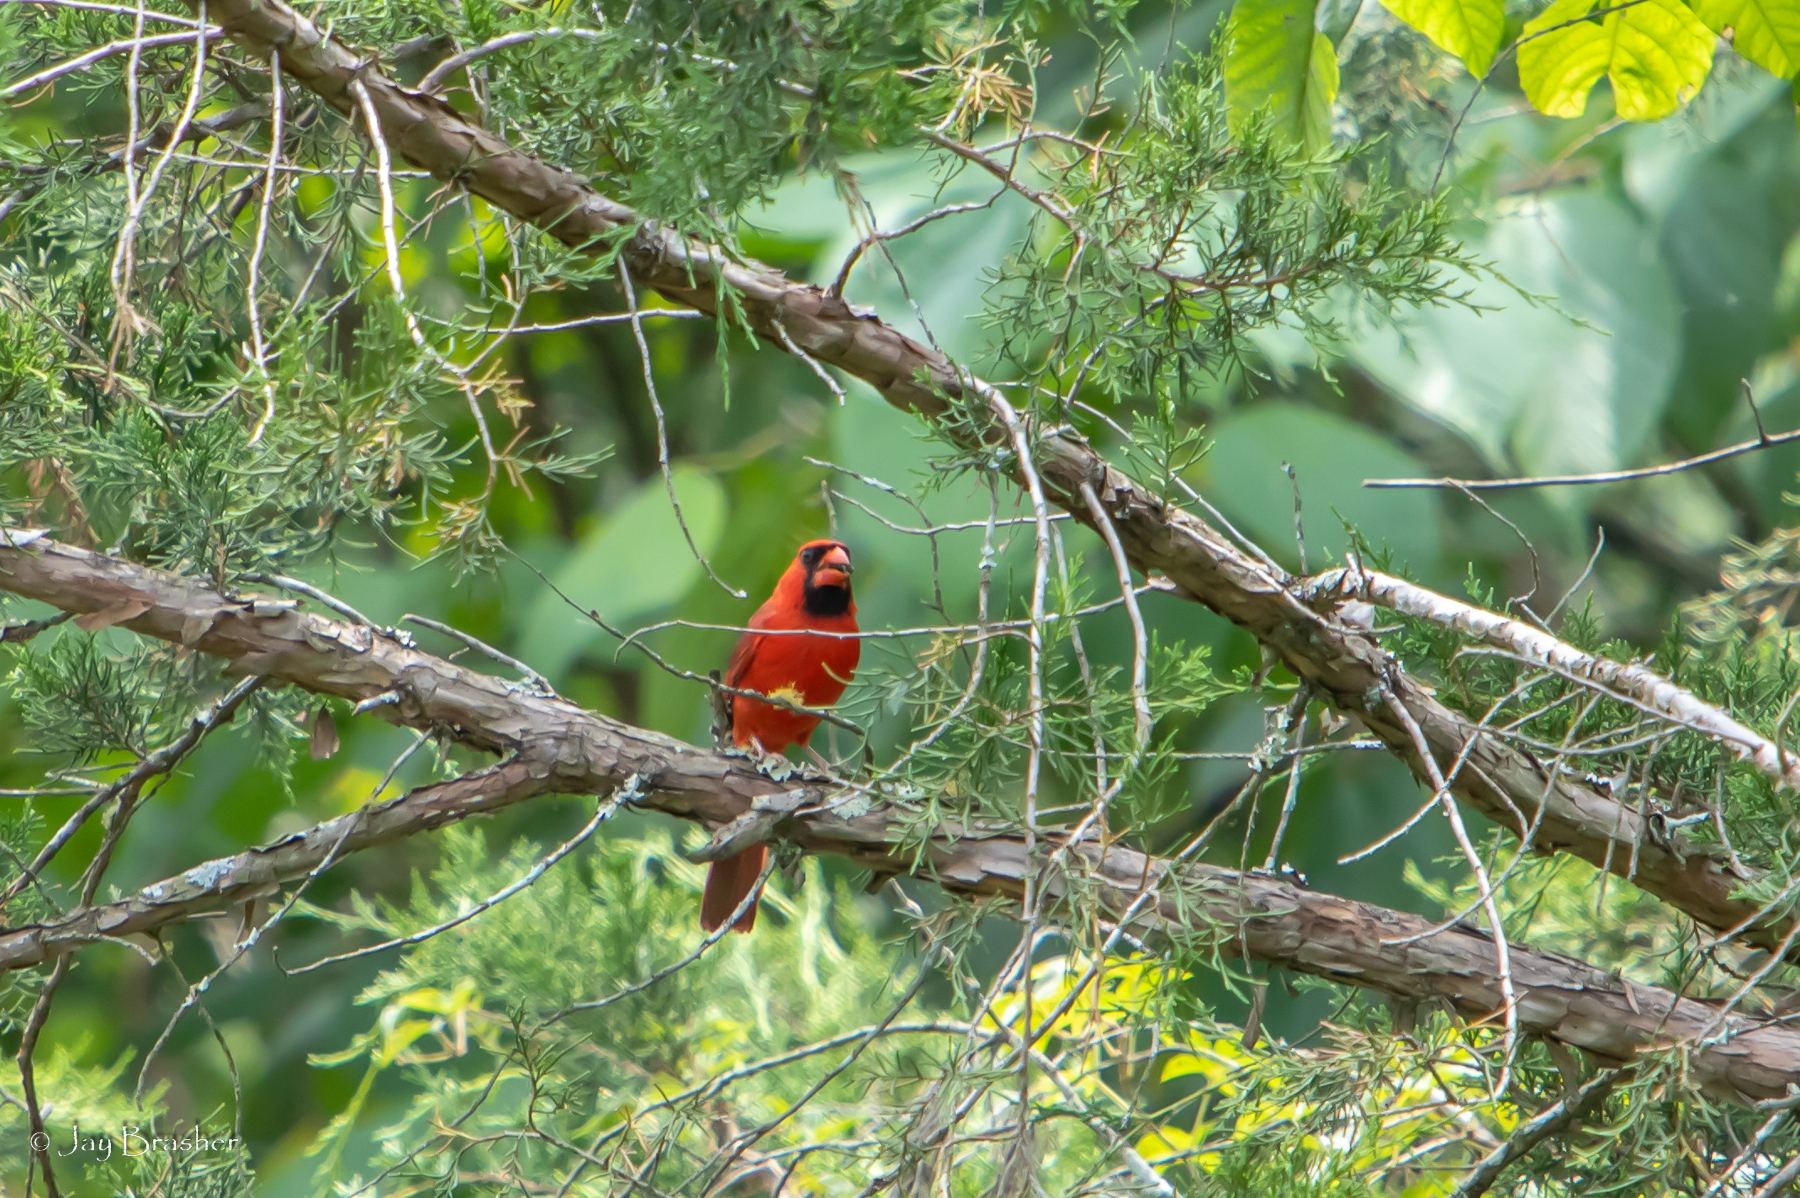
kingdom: Animalia
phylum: Chordata
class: Aves
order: Passeriformes
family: Cardinalidae
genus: Cardinalis
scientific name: Cardinalis cardinalis
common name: Northern cardinal
